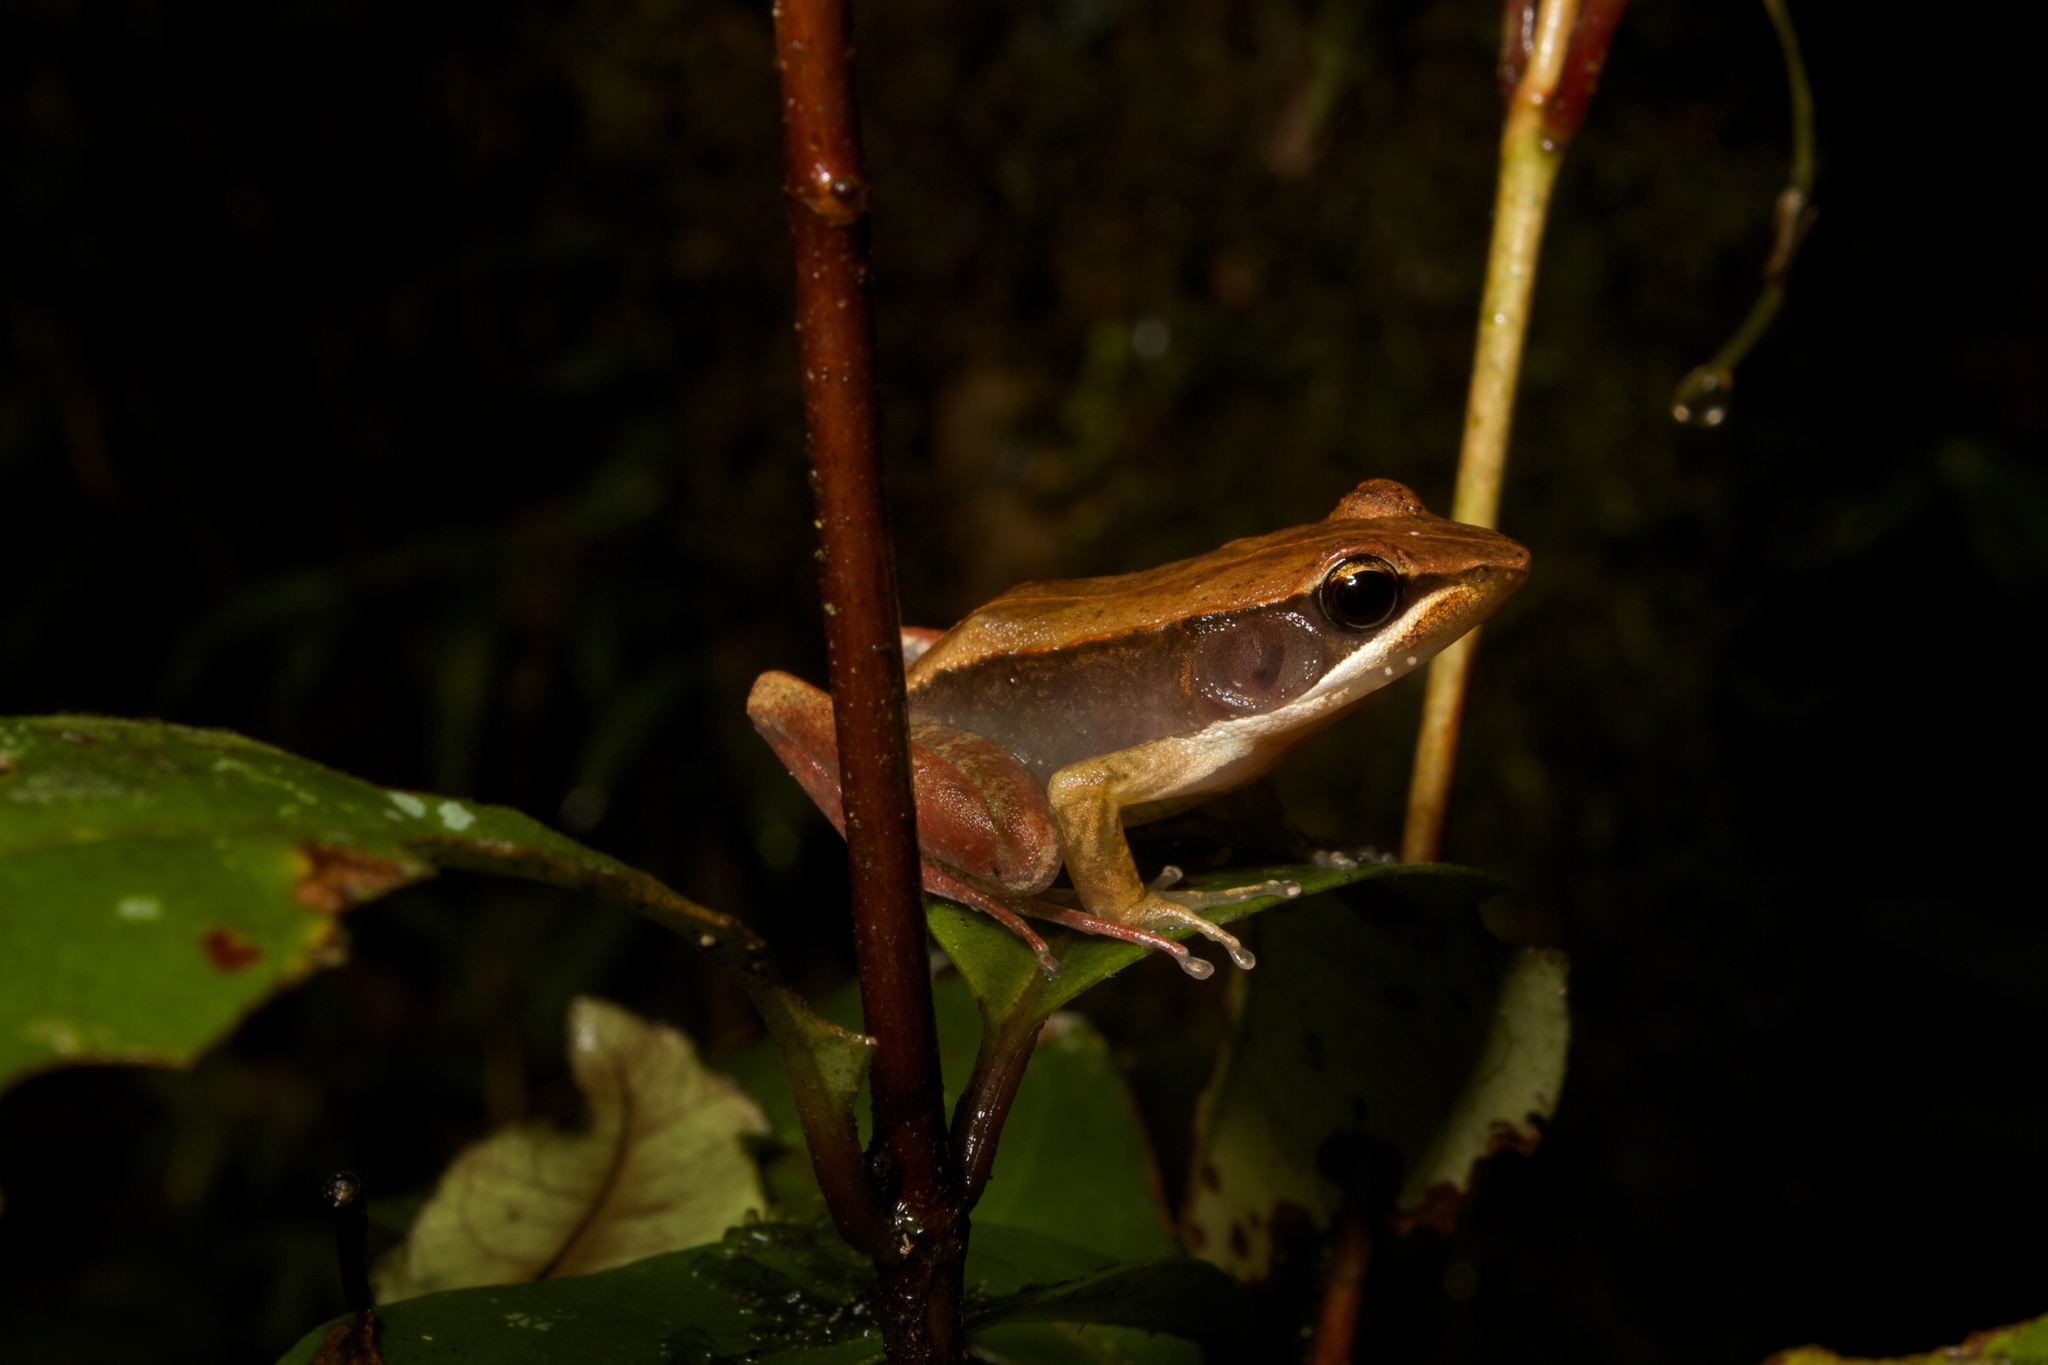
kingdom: Animalia
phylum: Chordata
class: Amphibia
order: Anura
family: Mantellidae
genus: Mantidactylus
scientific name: Mantidactylus opiparis
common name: Central madagascar frog
